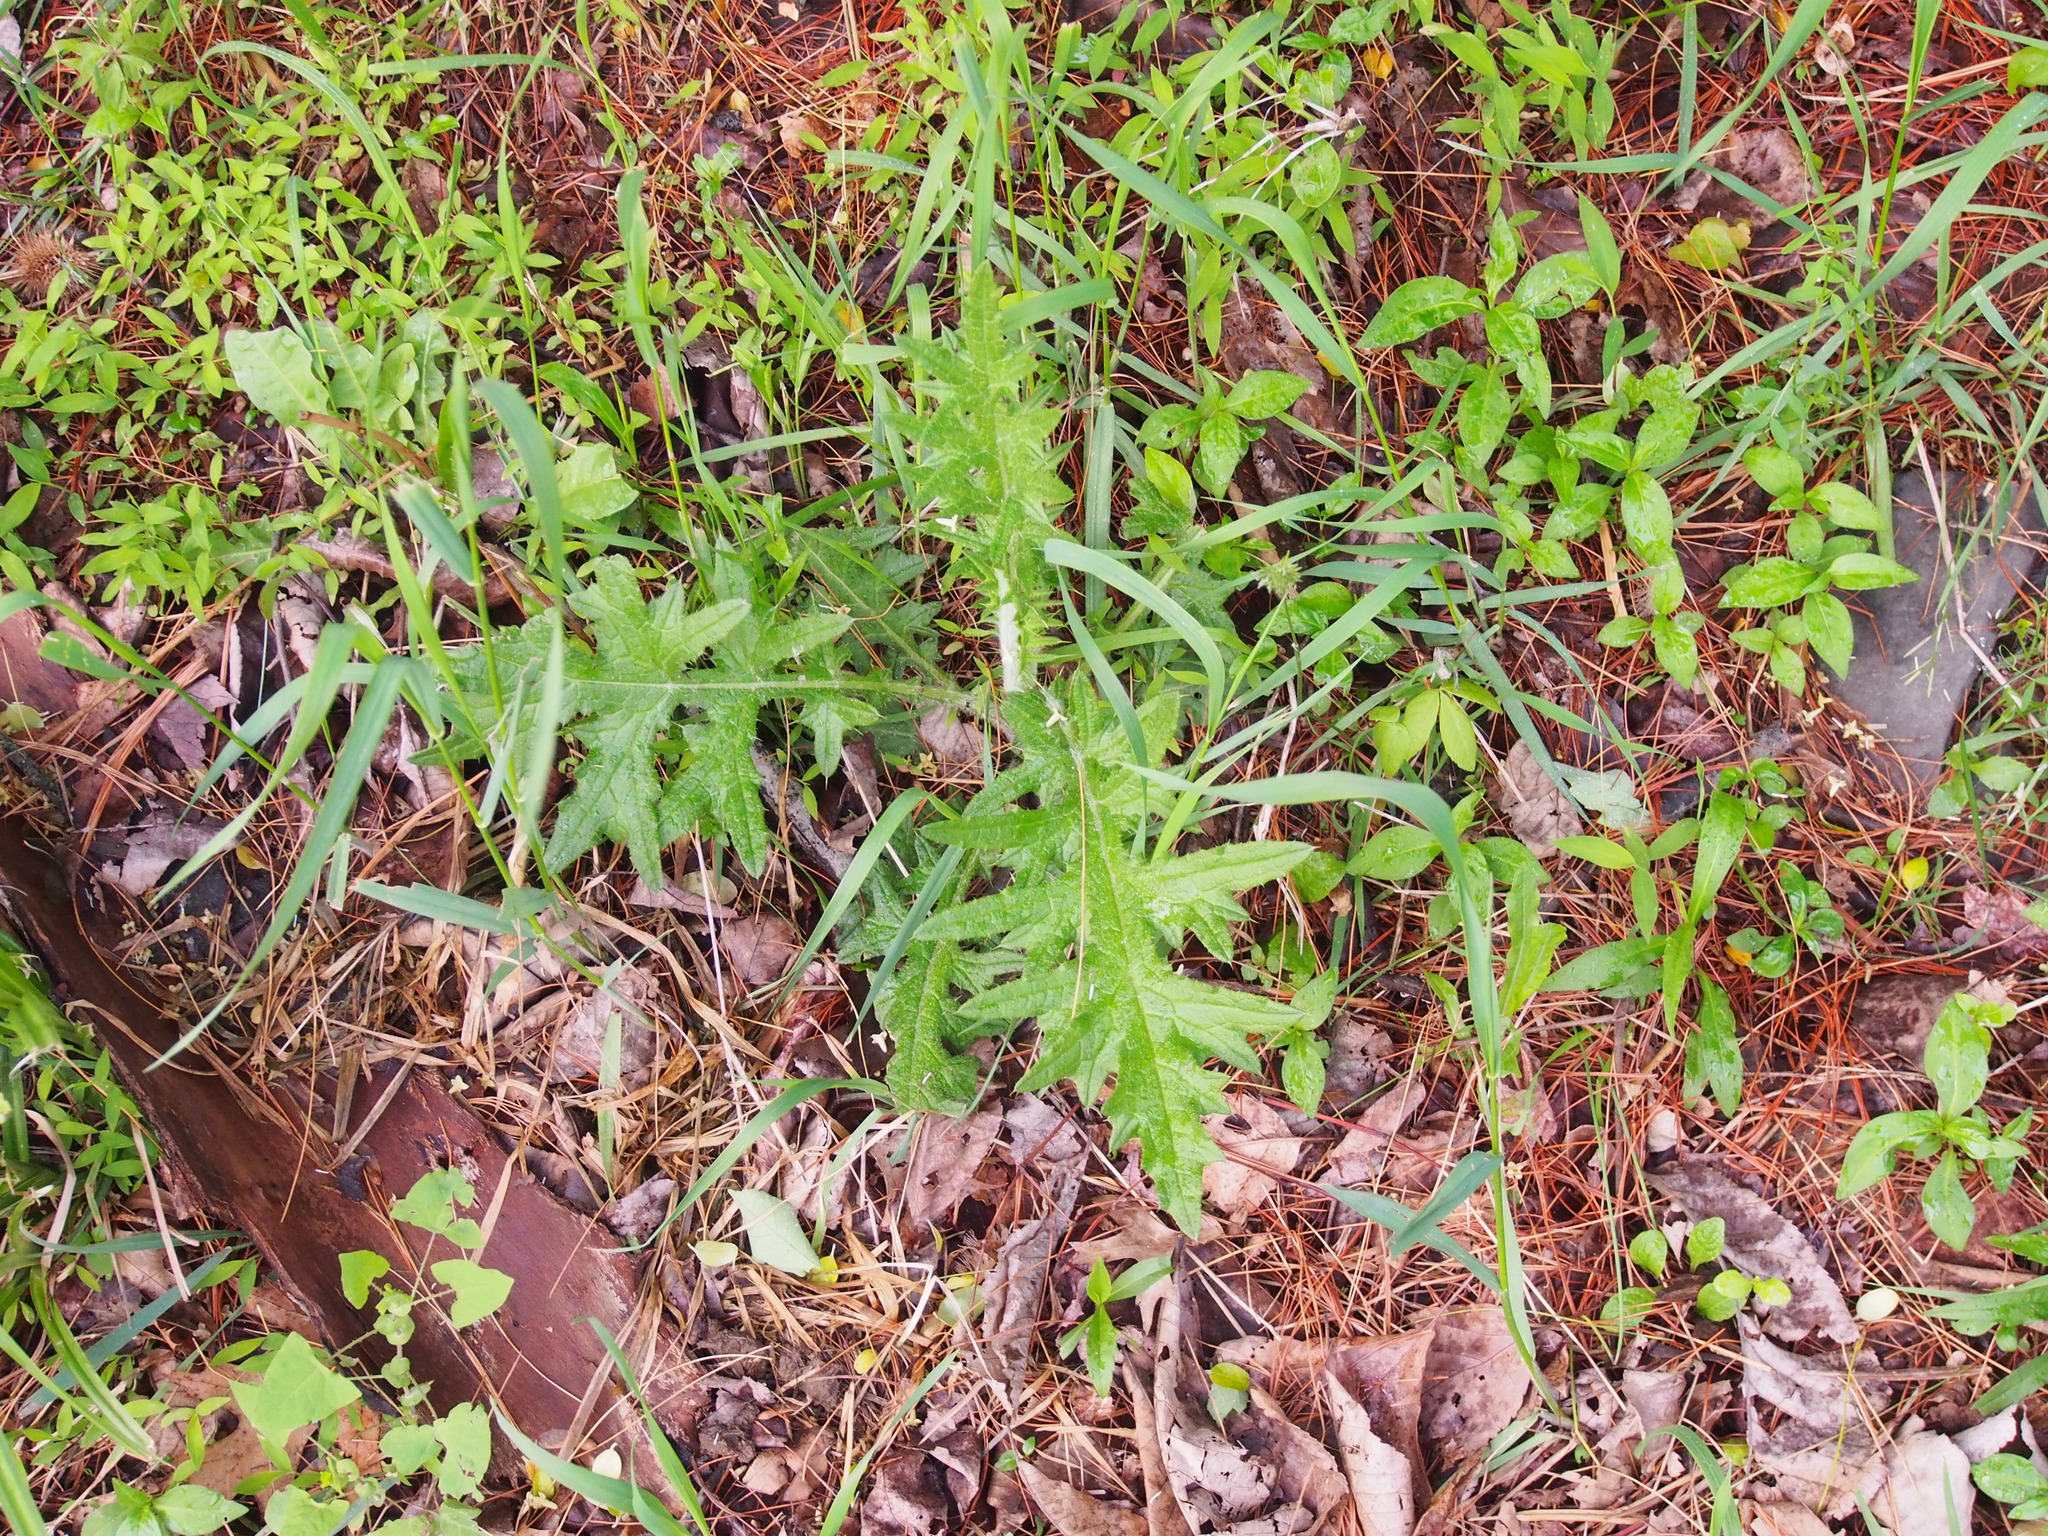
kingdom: Plantae
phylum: Tracheophyta
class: Magnoliopsida
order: Asterales
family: Asteraceae
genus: Cirsium
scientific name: Cirsium vulgare
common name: Bull thistle
